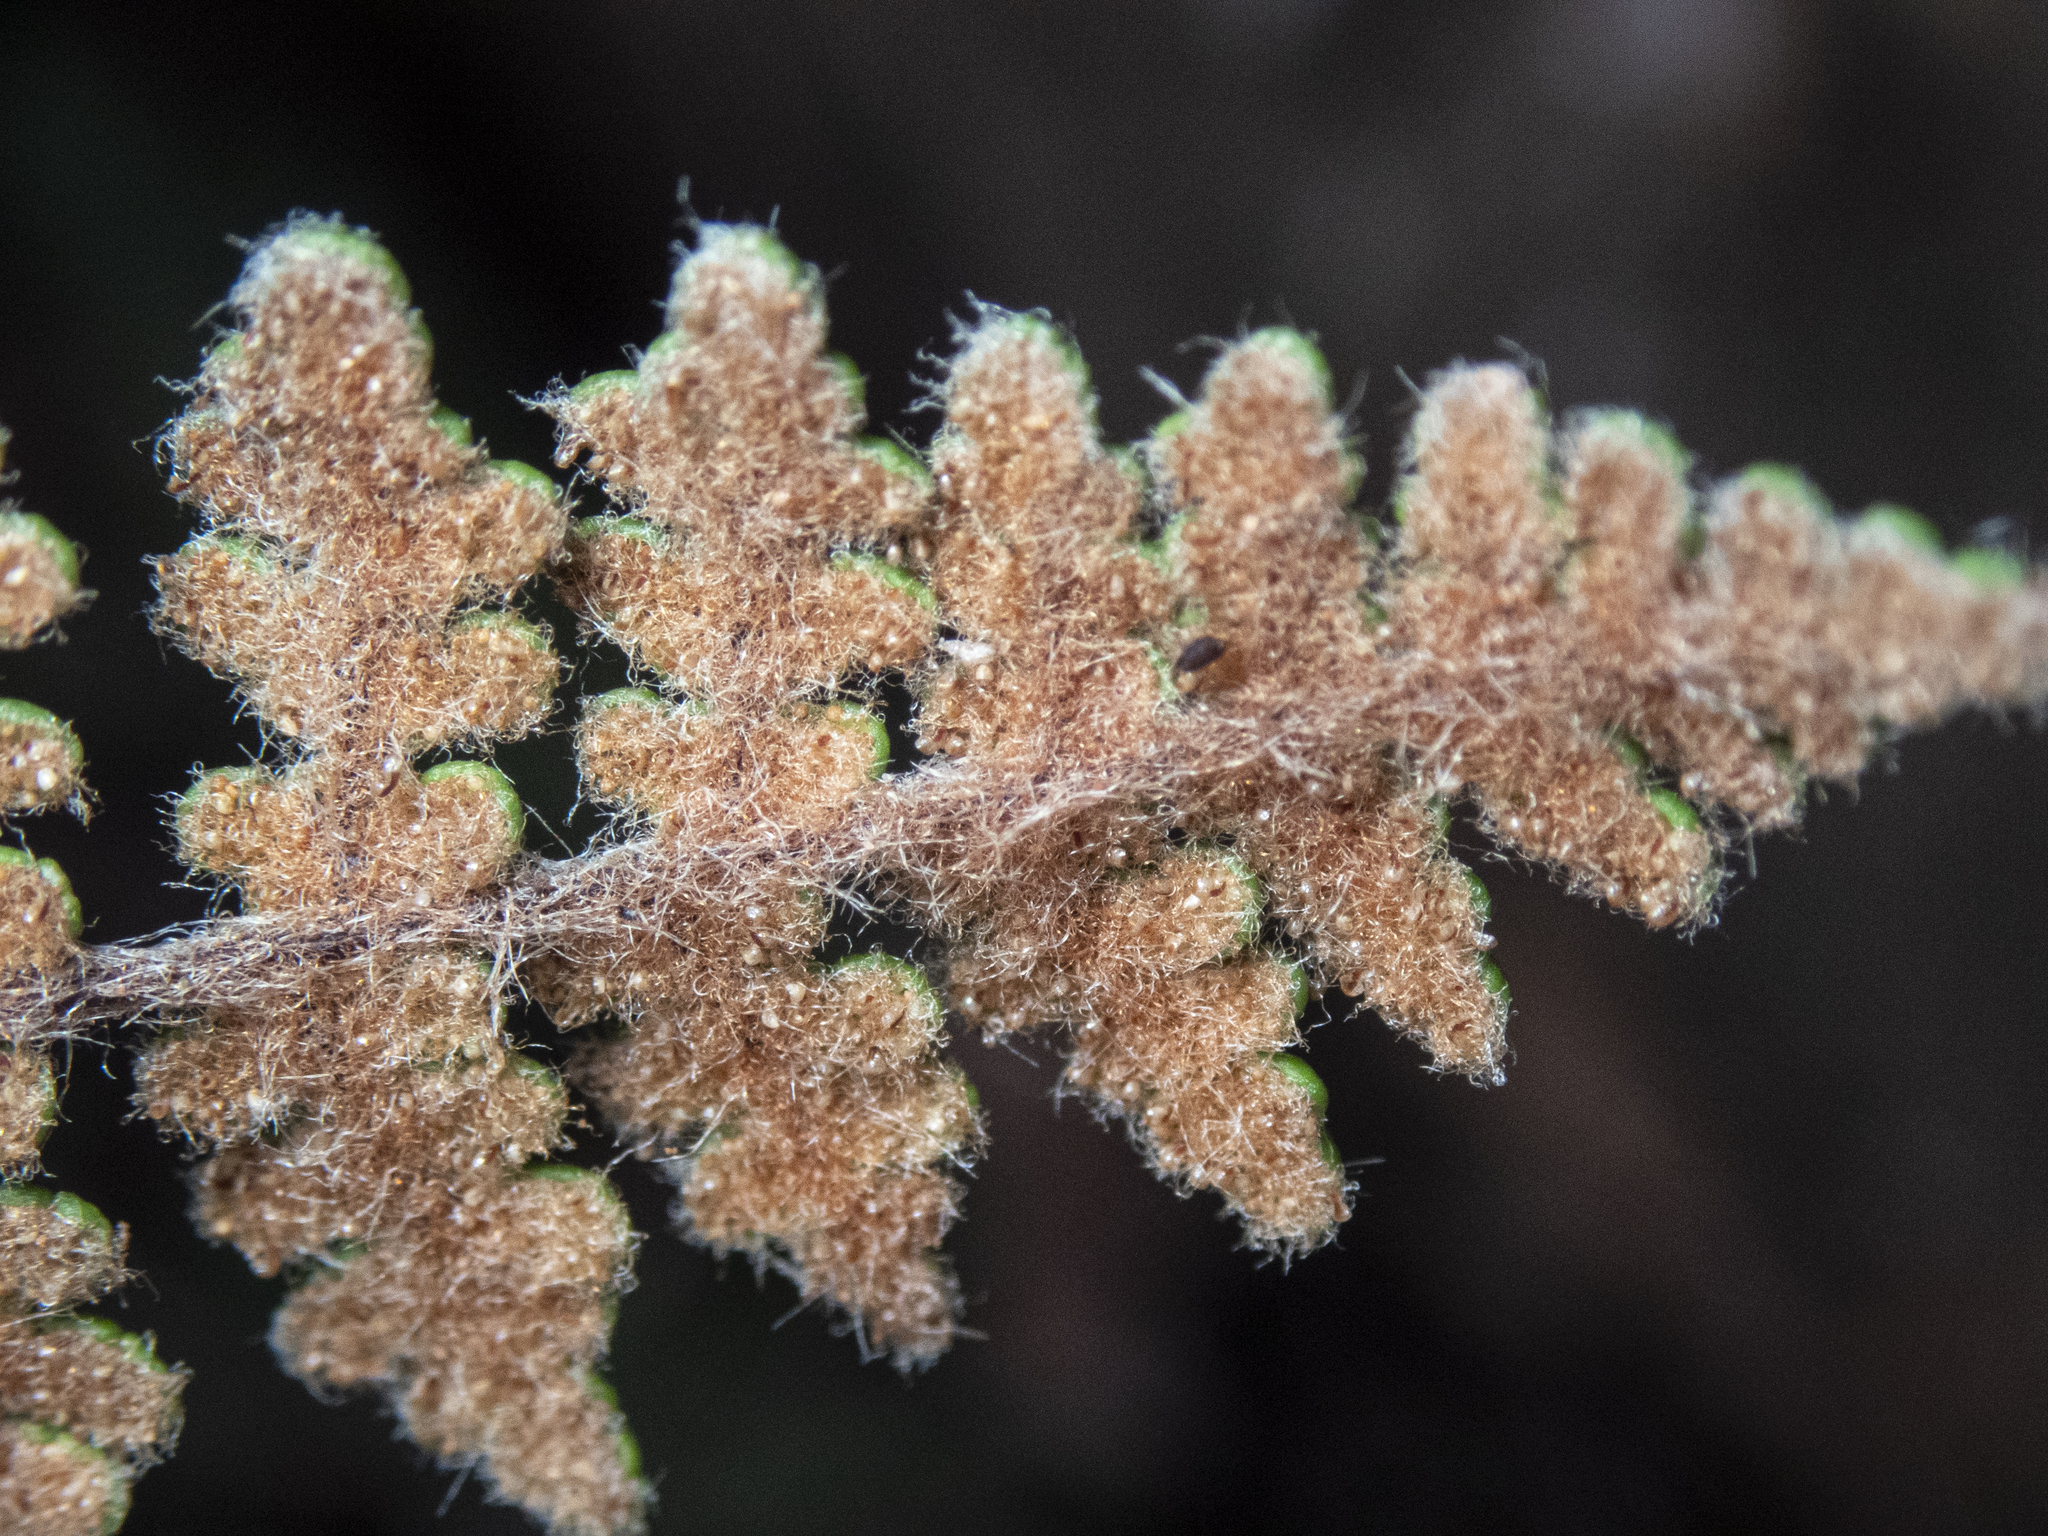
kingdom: Plantae
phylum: Tracheophyta
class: Polypodiopsida
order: Polypodiales
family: Pteridaceae
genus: Myriopteris
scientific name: Myriopteris gracilis
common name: Fee's lip fern
